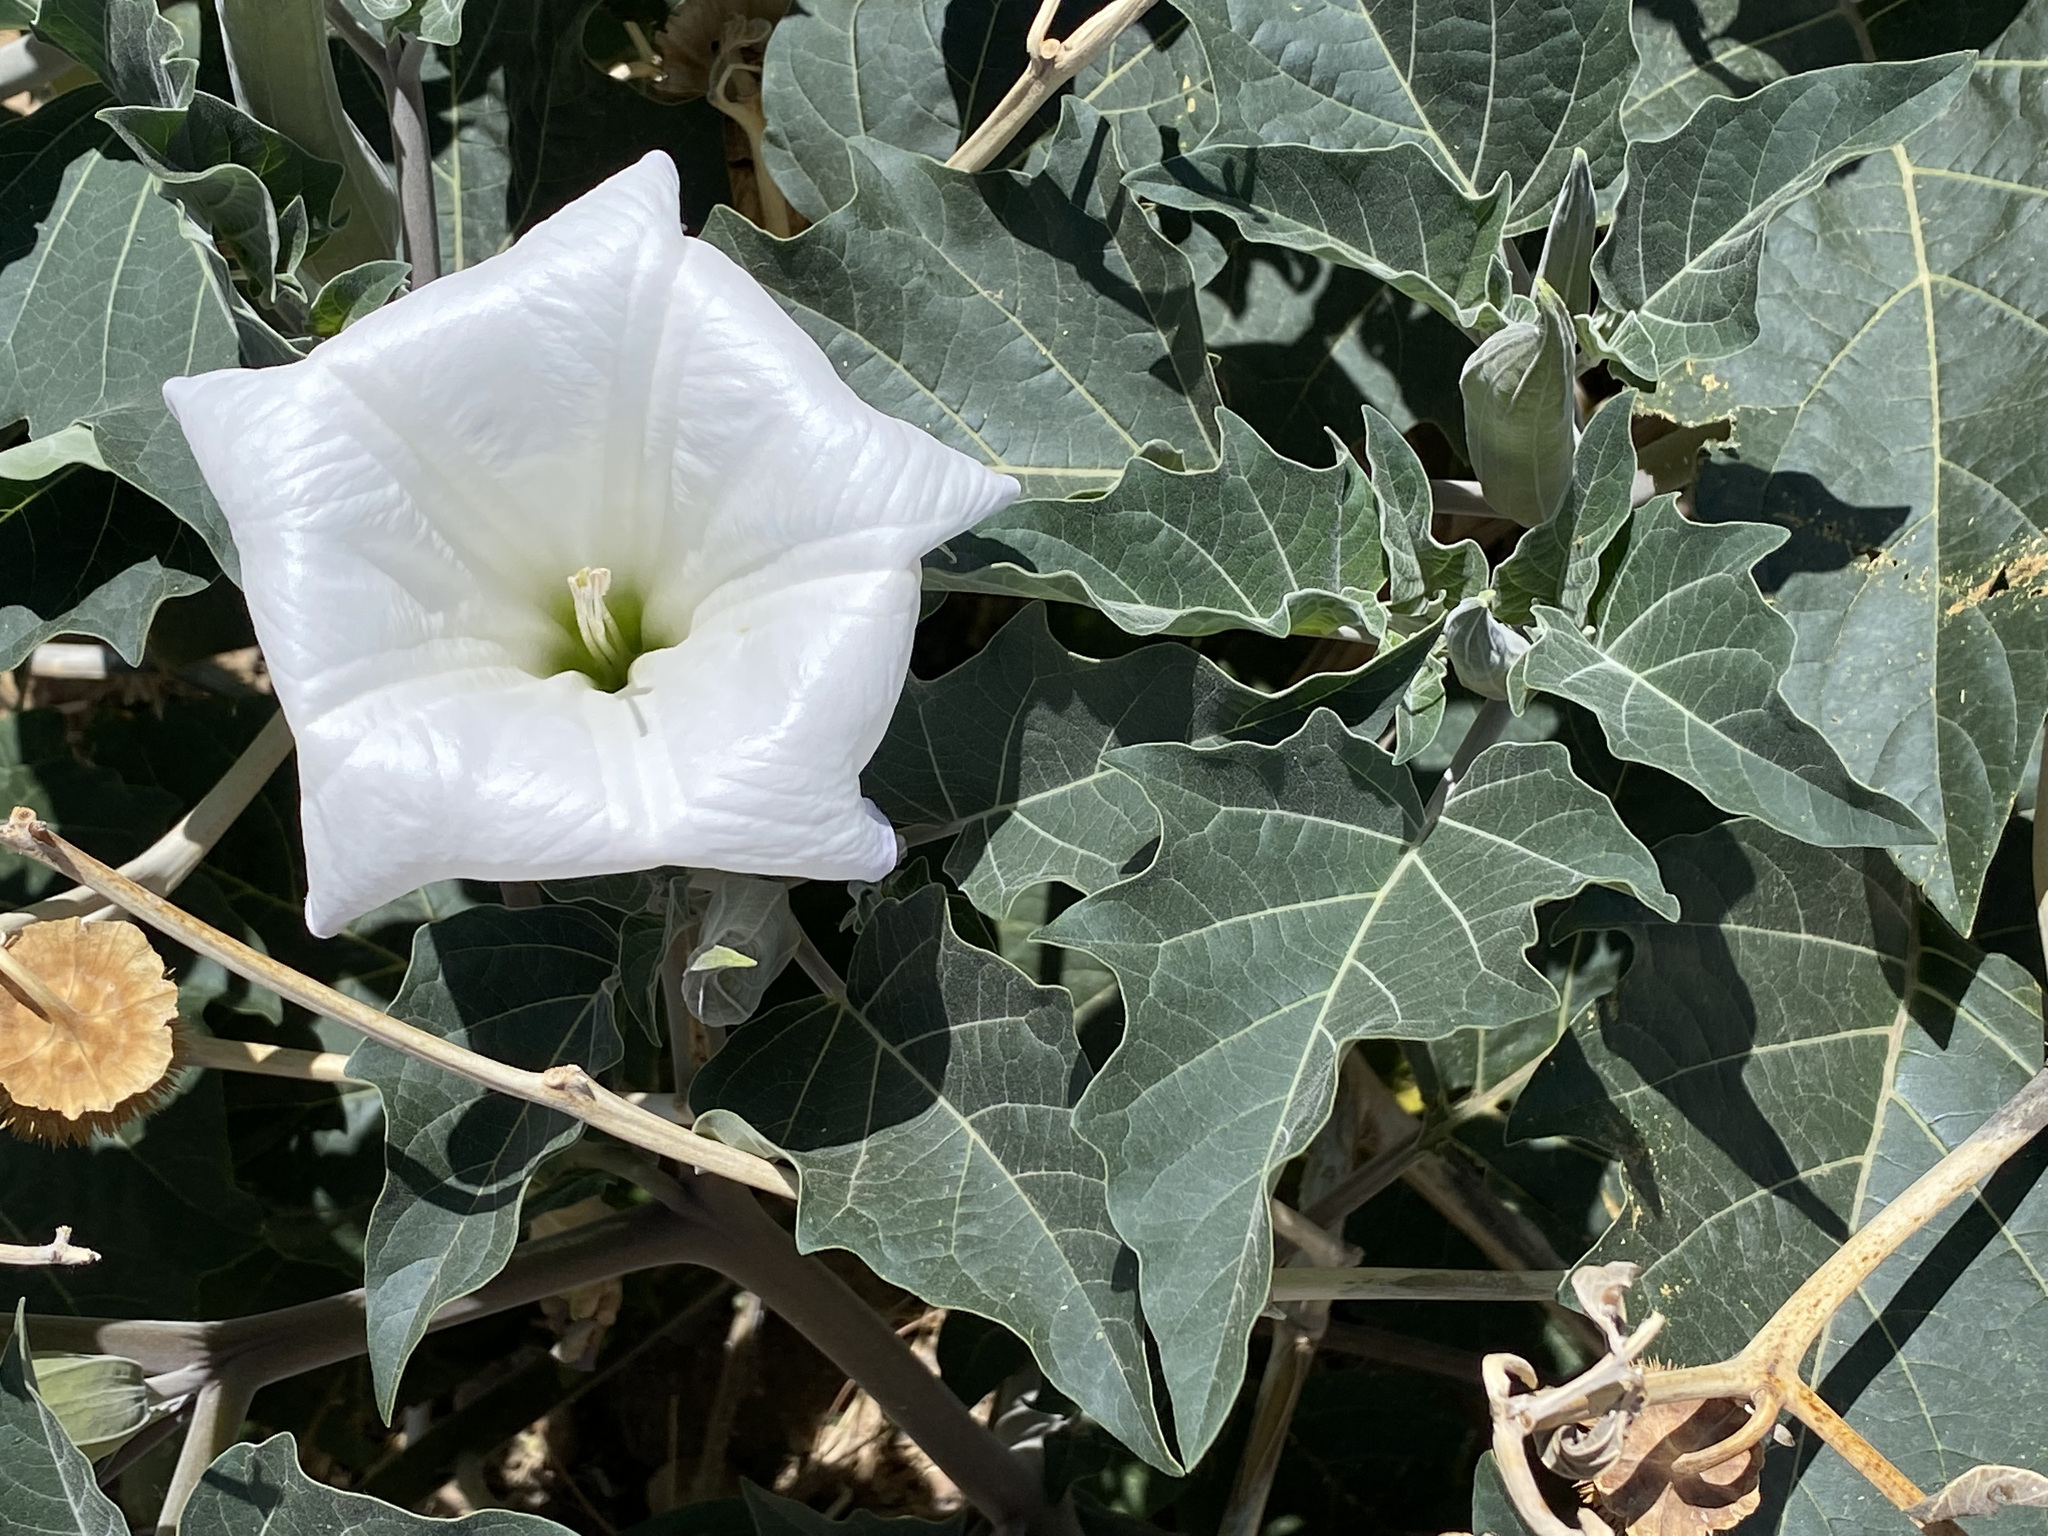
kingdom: Plantae
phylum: Tracheophyta
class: Magnoliopsida
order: Solanales
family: Solanaceae
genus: Datura
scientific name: Datura wrightii
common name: Sacred thorn-apple
